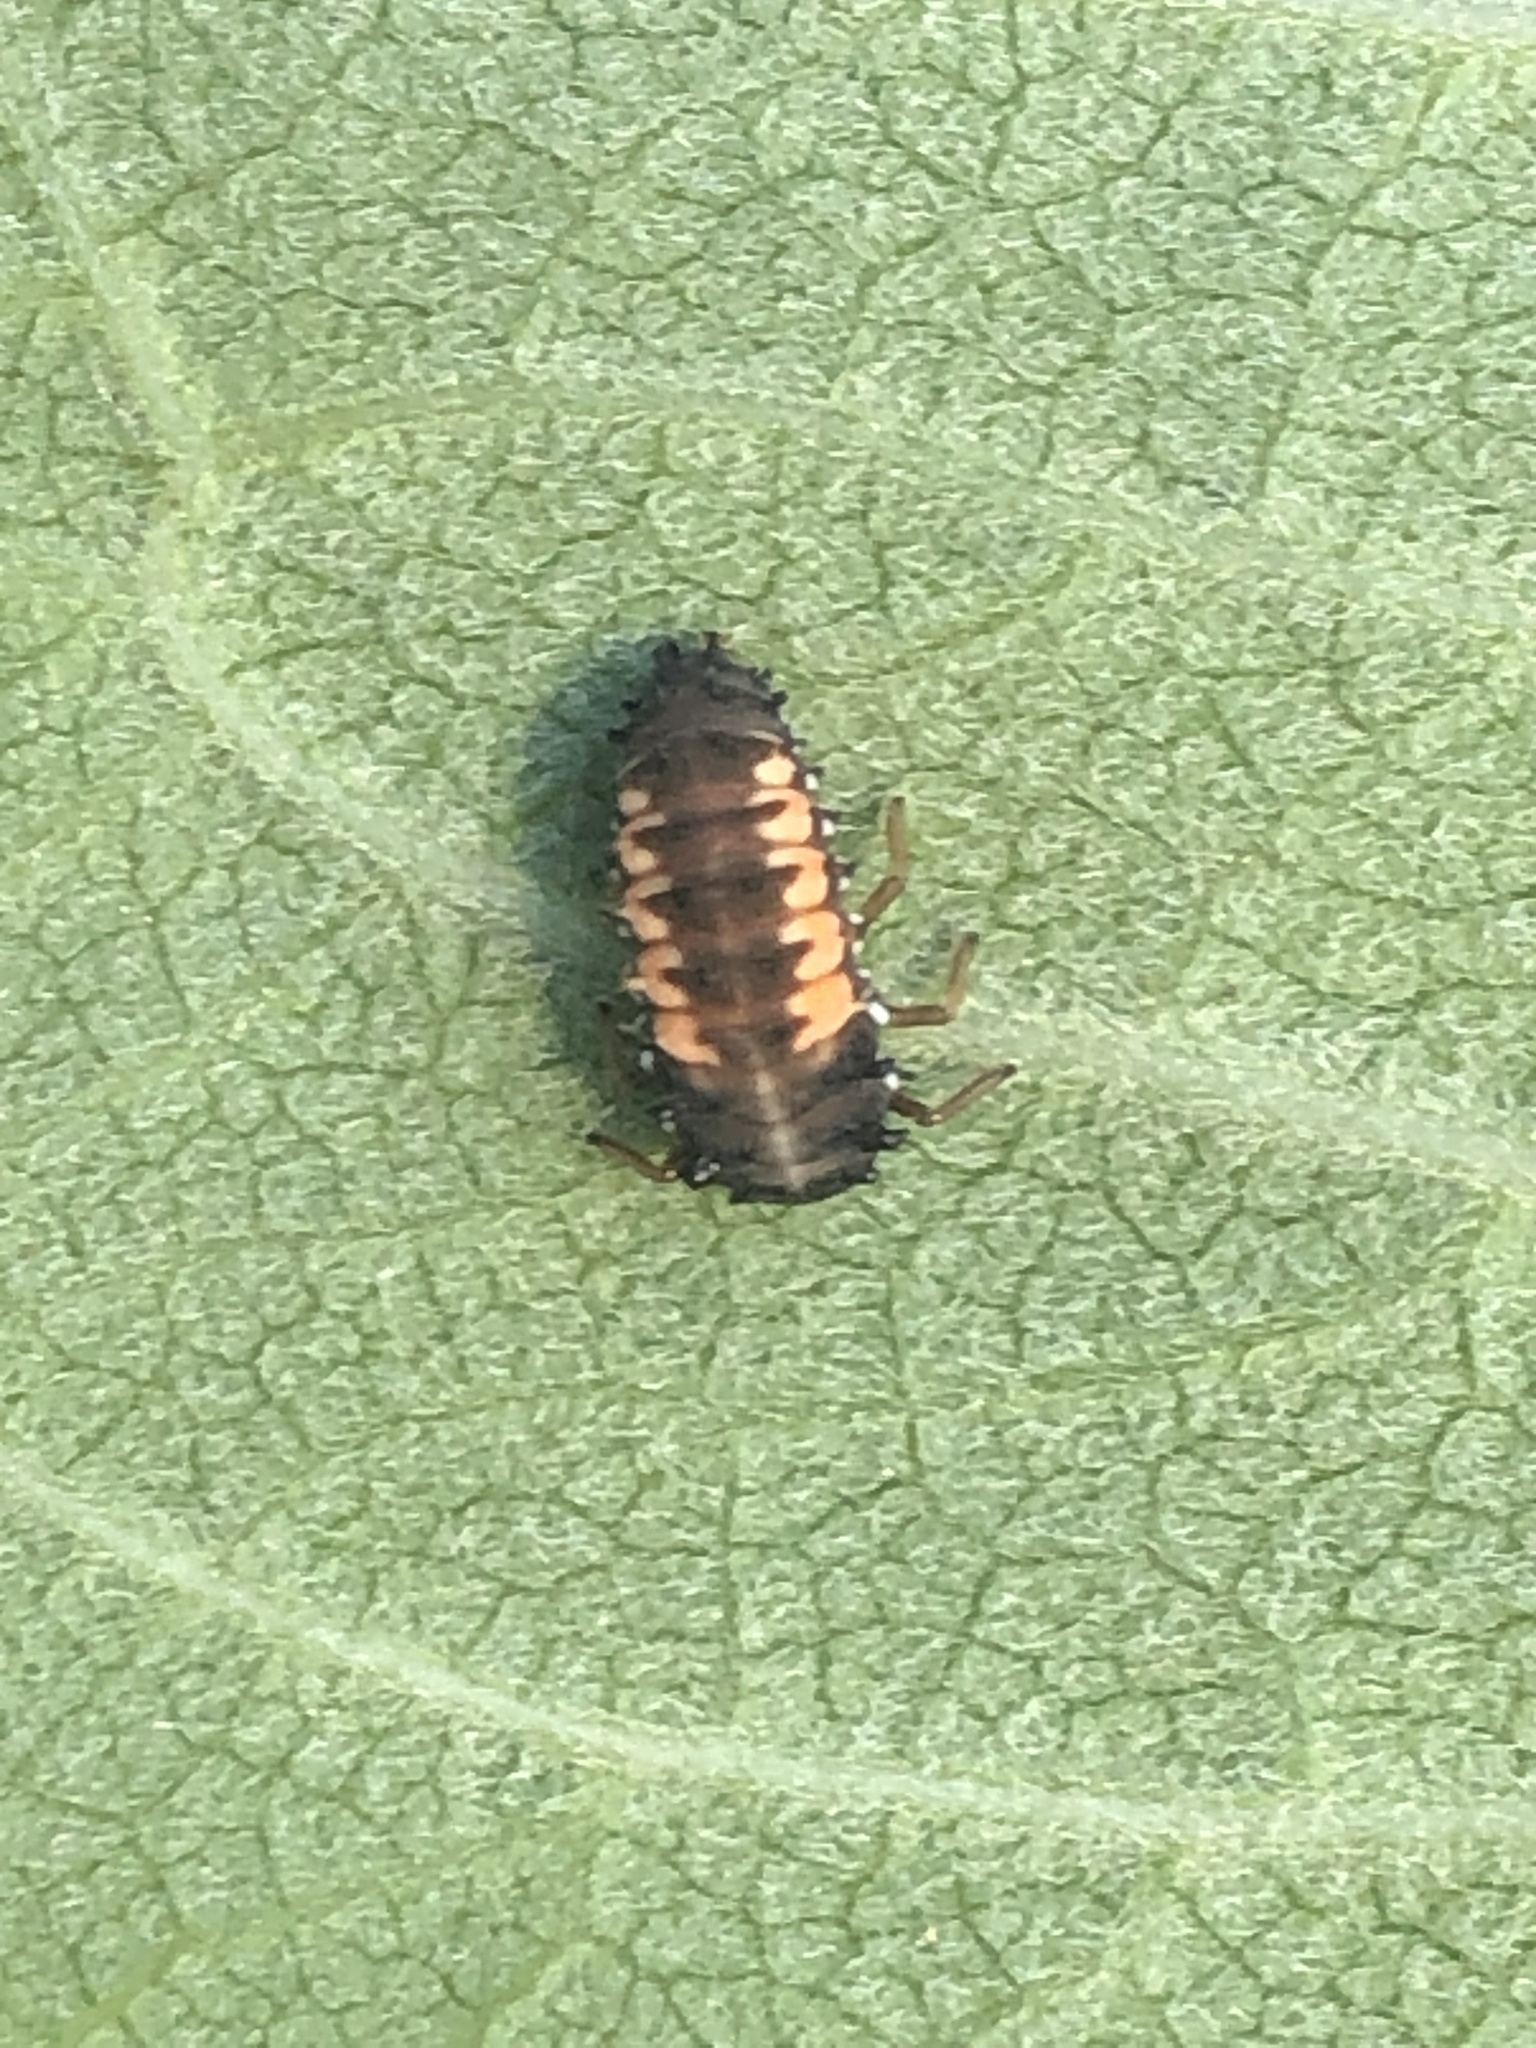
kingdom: Animalia
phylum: Arthropoda
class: Insecta
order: Coleoptera
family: Coccinellidae
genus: Harmonia
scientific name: Harmonia axyridis
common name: Harlequin ladybird
